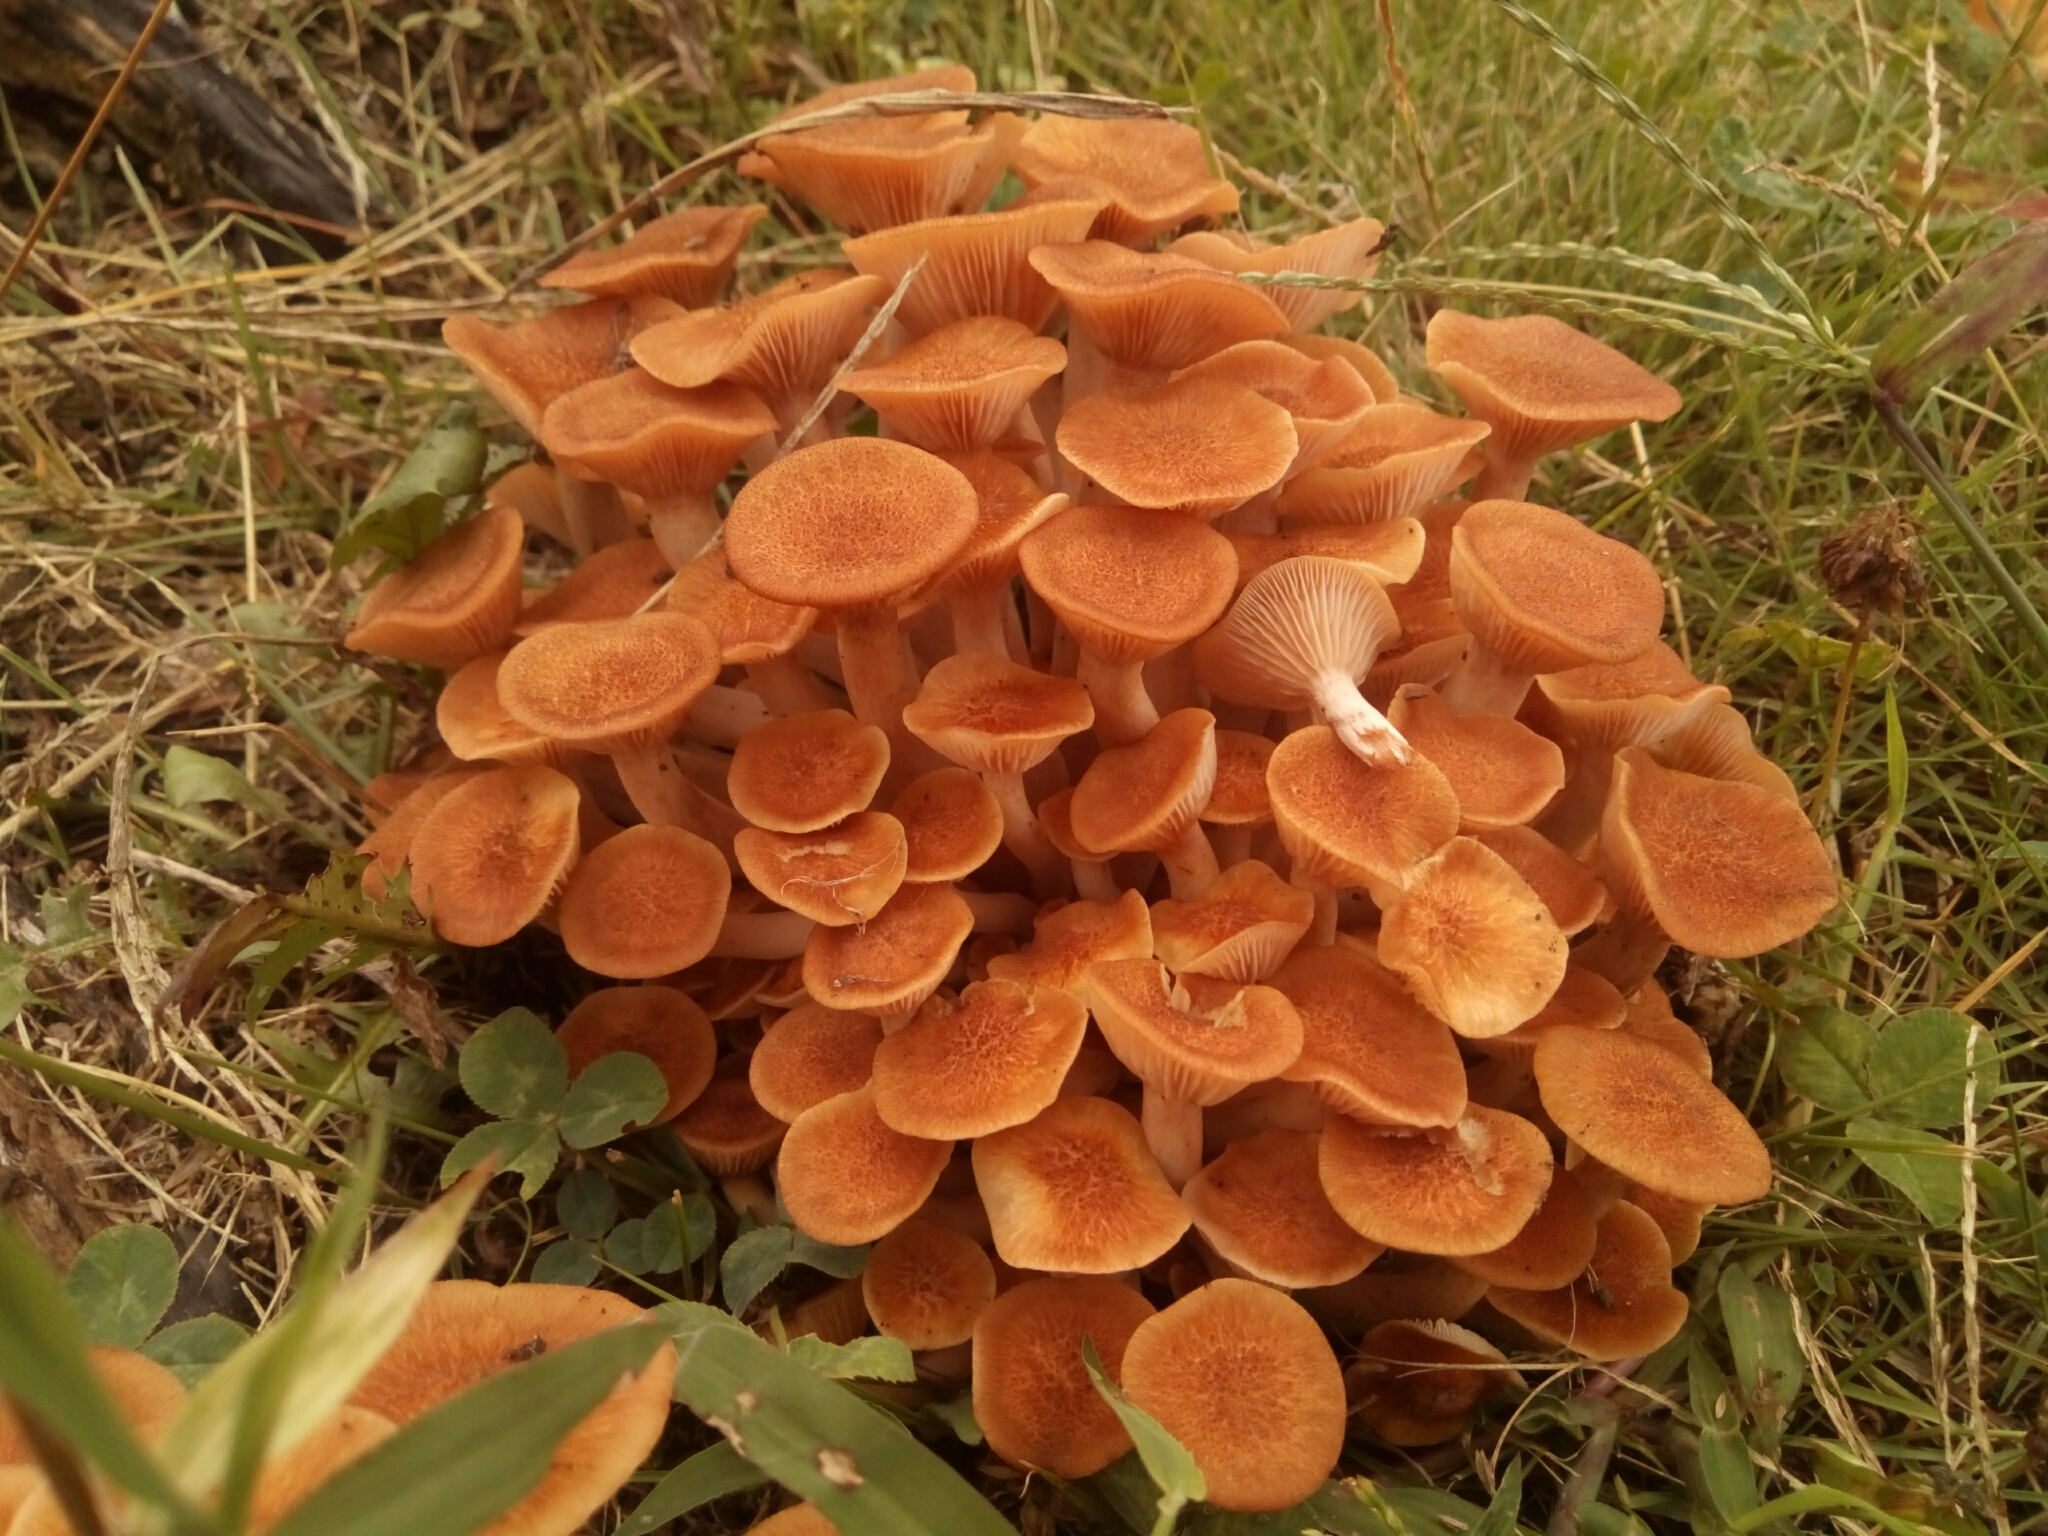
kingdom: Fungi
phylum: Basidiomycota
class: Agaricomycetes
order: Agaricales
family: Physalacriaceae
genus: Desarmillaria
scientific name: Desarmillaria caespitosa
